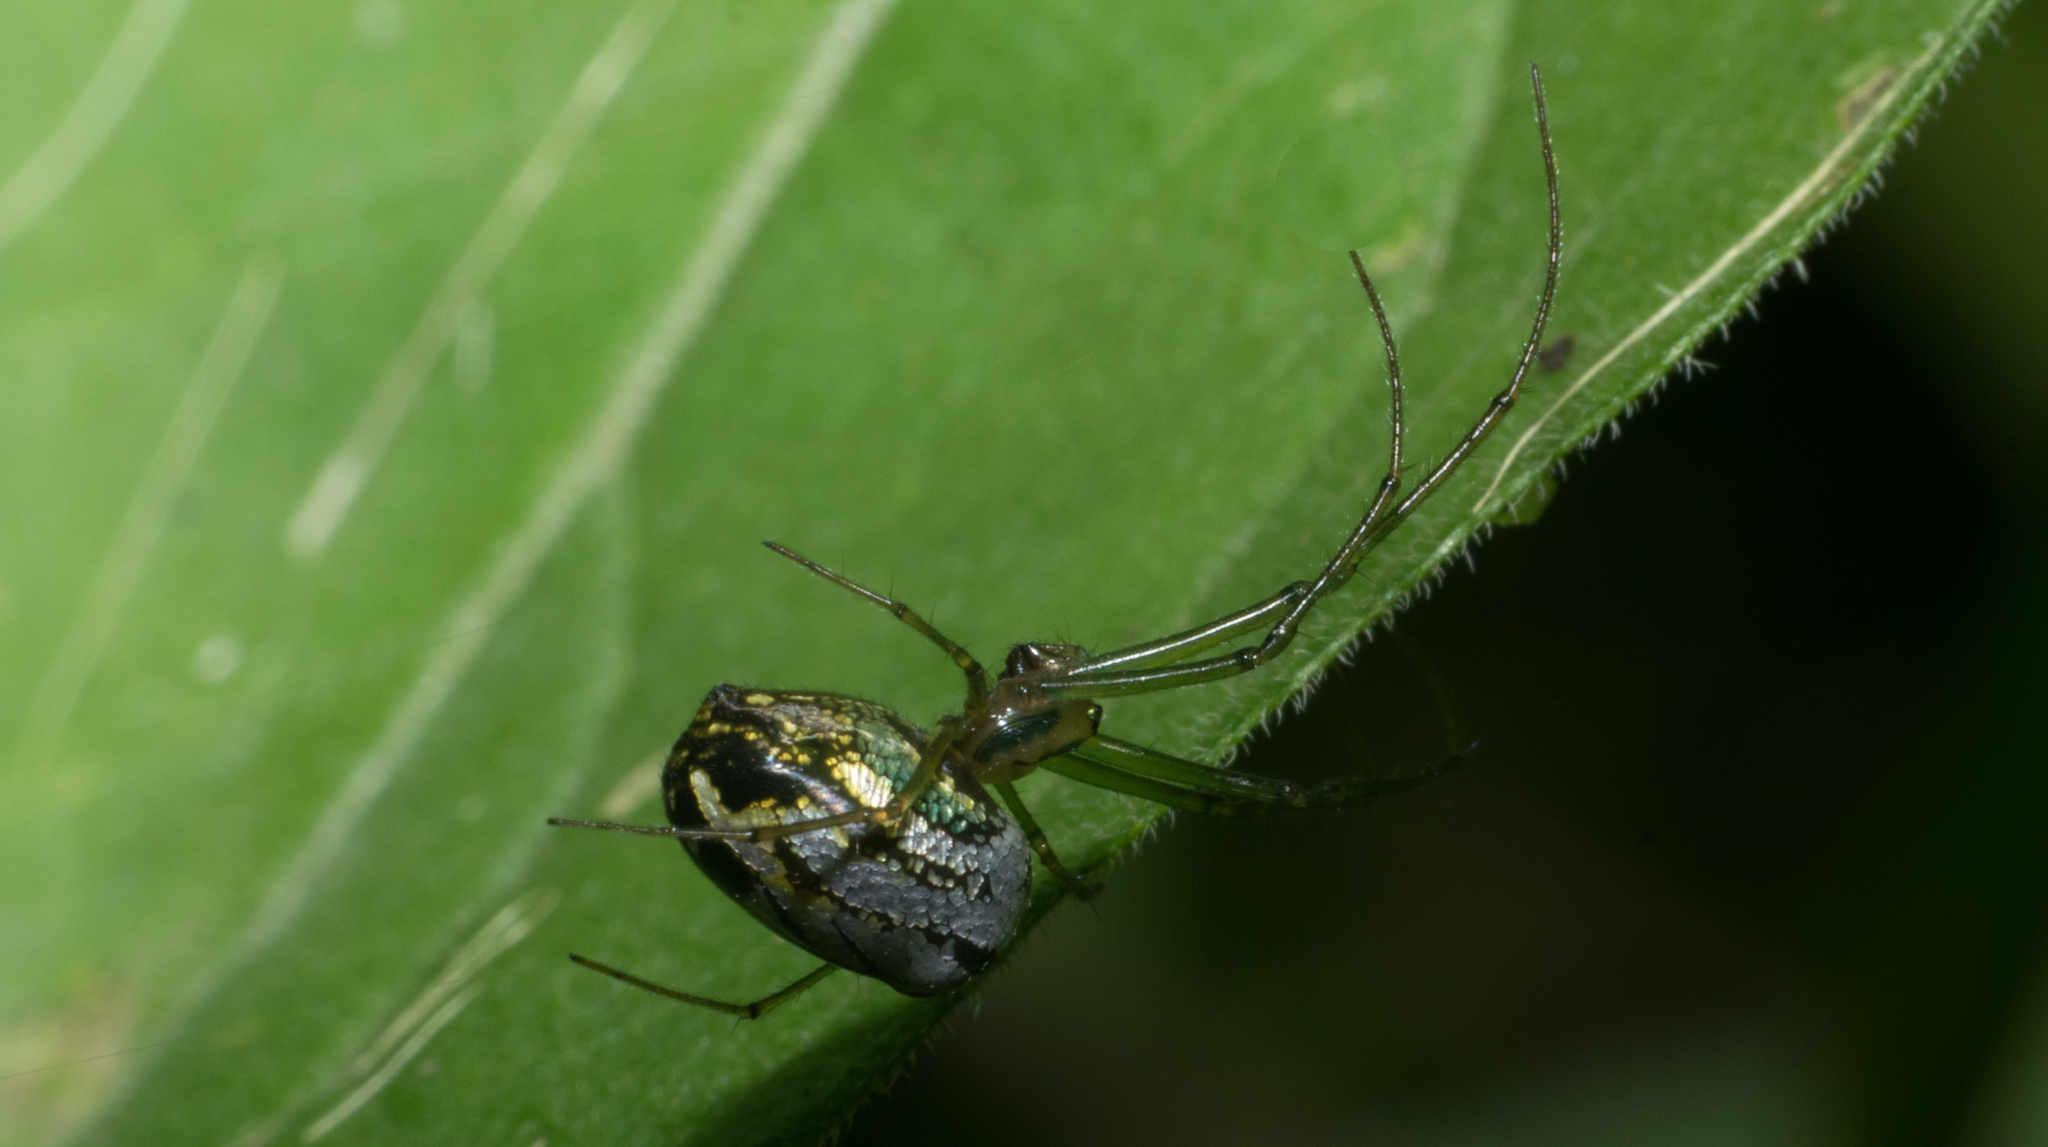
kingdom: Animalia
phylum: Arthropoda
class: Arachnida
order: Araneae
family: Tetragnathidae
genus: Leucauge
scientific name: Leucauge volupis
